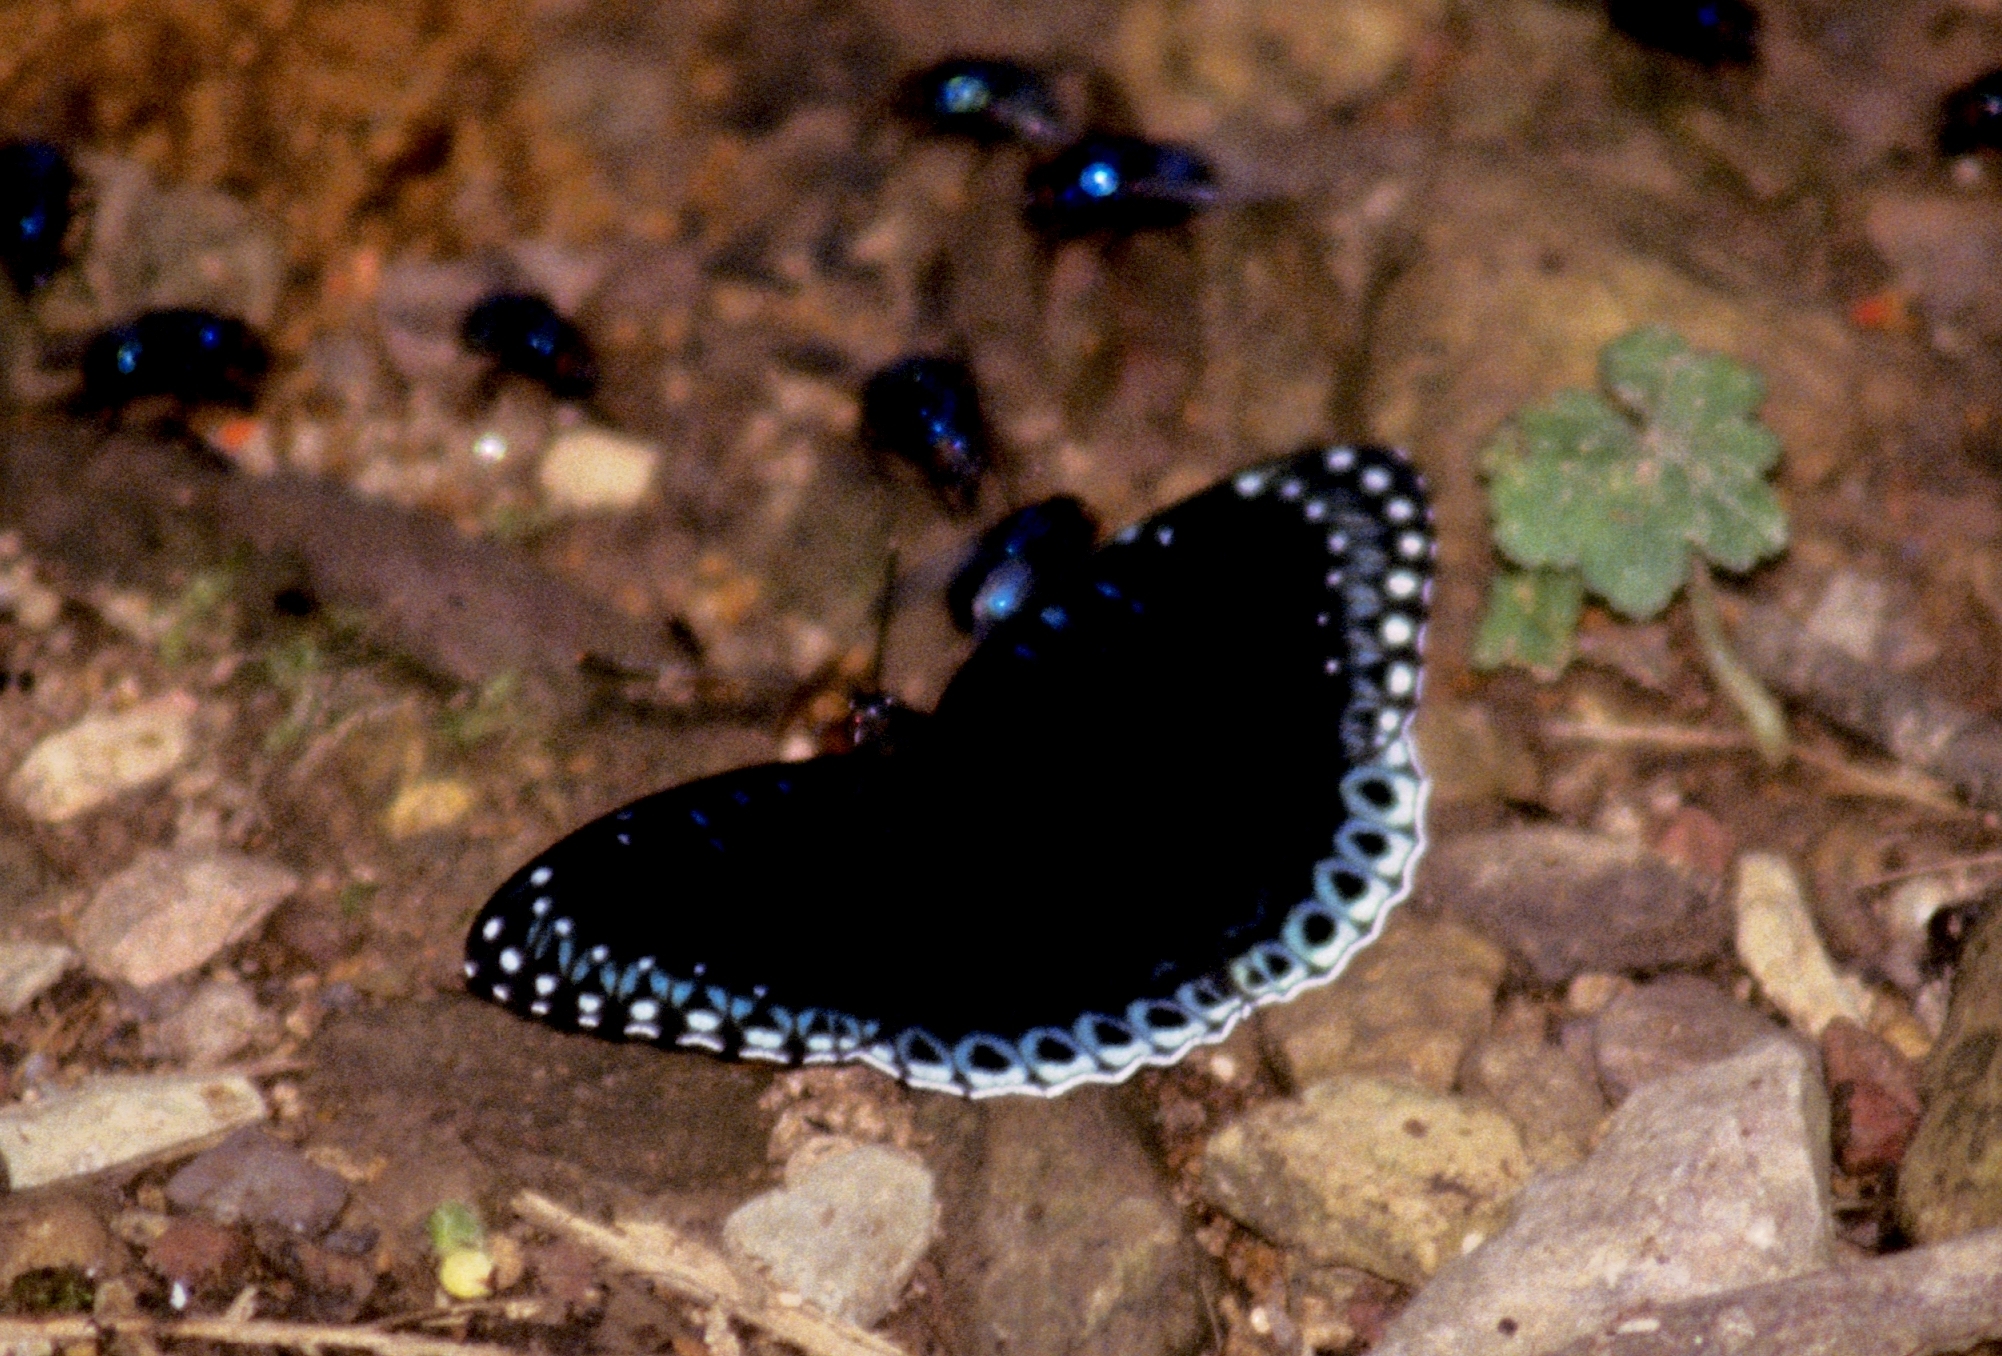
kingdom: Animalia
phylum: Arthropoda
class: Insecta
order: Lepidoptera
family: Nymphalidae
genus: Stibochiona
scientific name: Stibochiona nicea
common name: Popinjay
